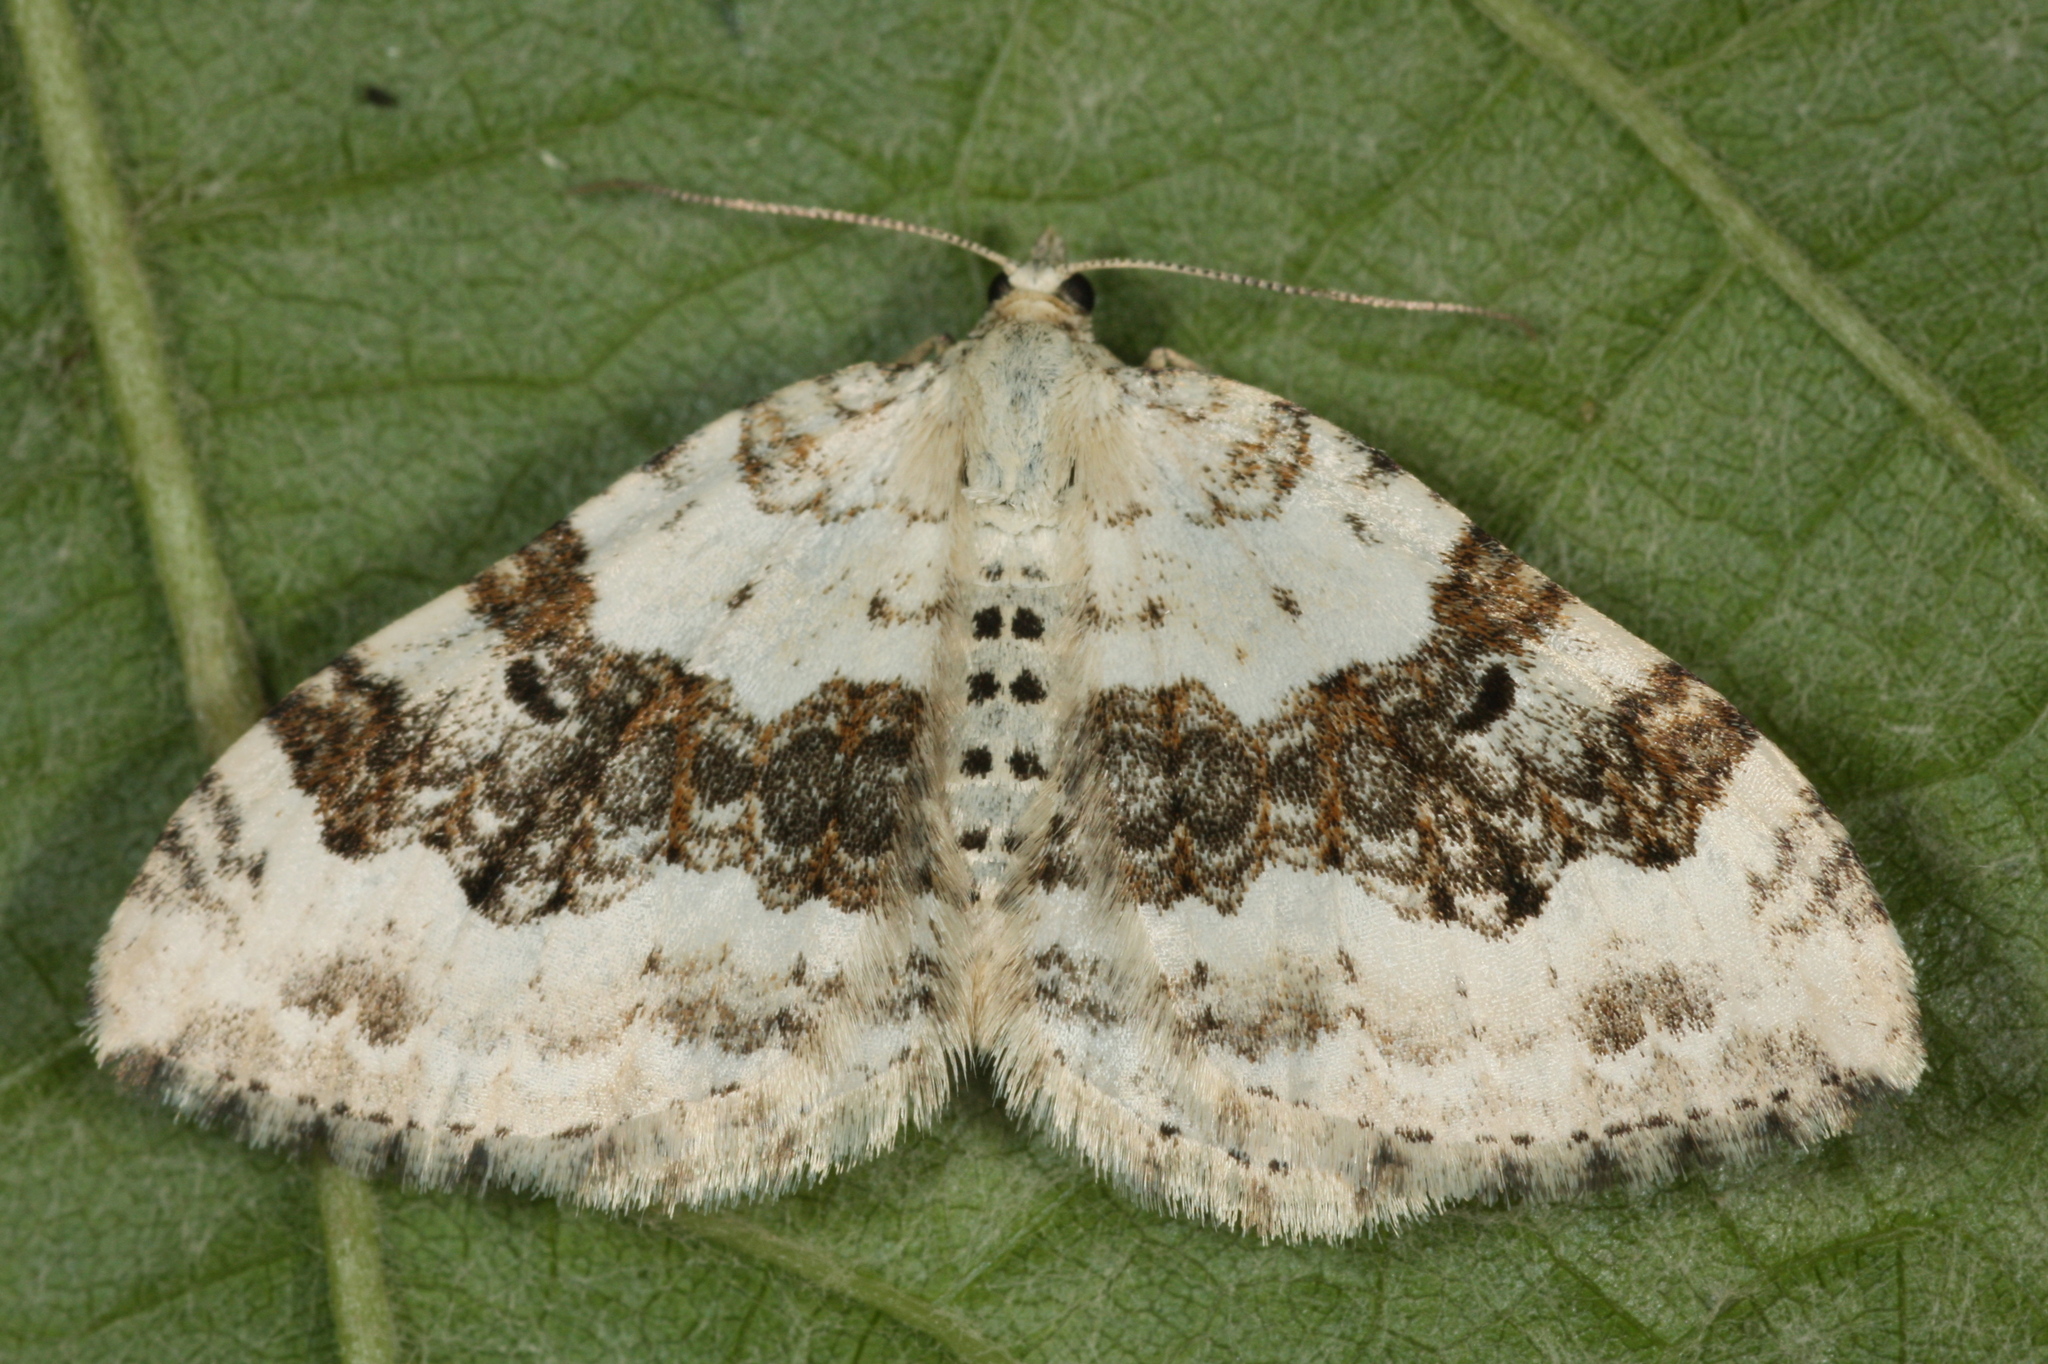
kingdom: Animalia
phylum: Arthropoda
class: Insecta
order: Lepidoptera
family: Geometridae
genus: Xanthorhoe
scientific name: Xanthorhoe montanata
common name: Silver-ground carpet
